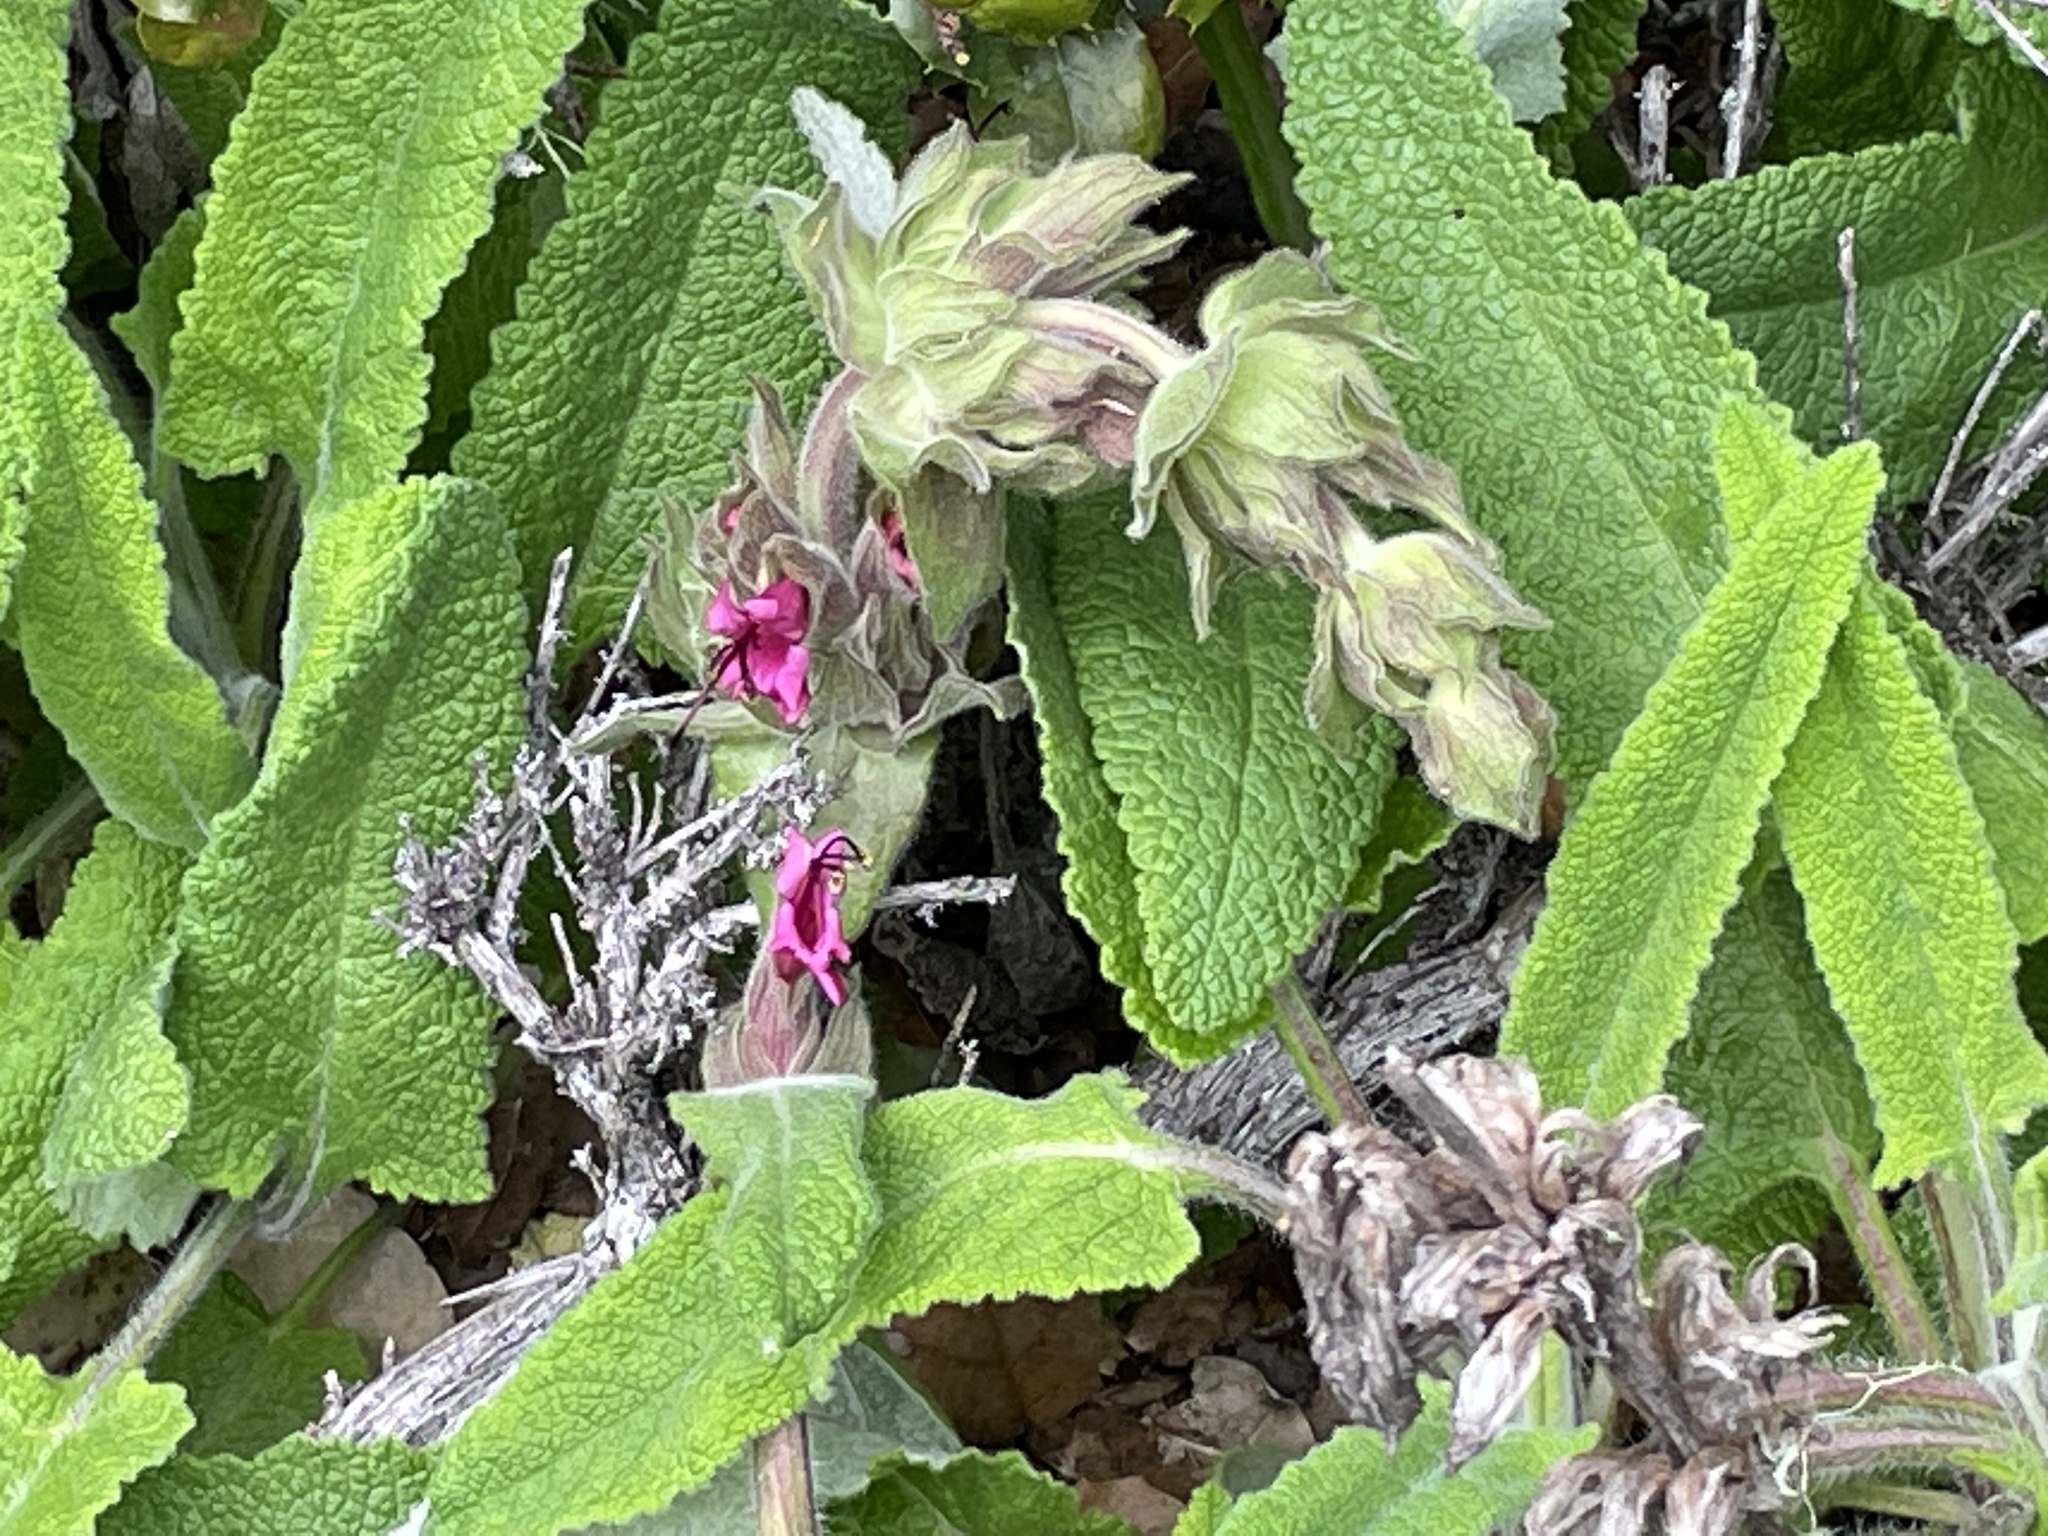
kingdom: Plantae
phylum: Tracheophyta
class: Magnoliopsida
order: Lamiales
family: Lamiaceae
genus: Salvia
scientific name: Salvia spathacea
